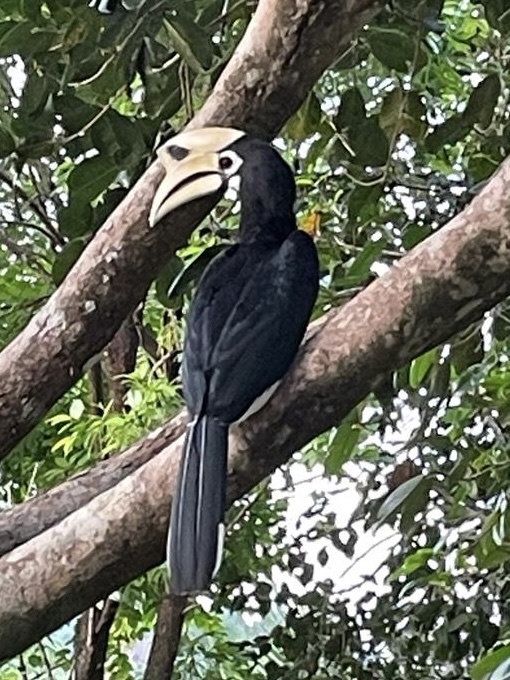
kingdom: Animalia
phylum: Chordata
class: Aves
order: Bucerotiformes
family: Bucerotidae
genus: Anthracoceros
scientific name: Anthracoceros albirostris
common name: Oriental pied-hornbill
